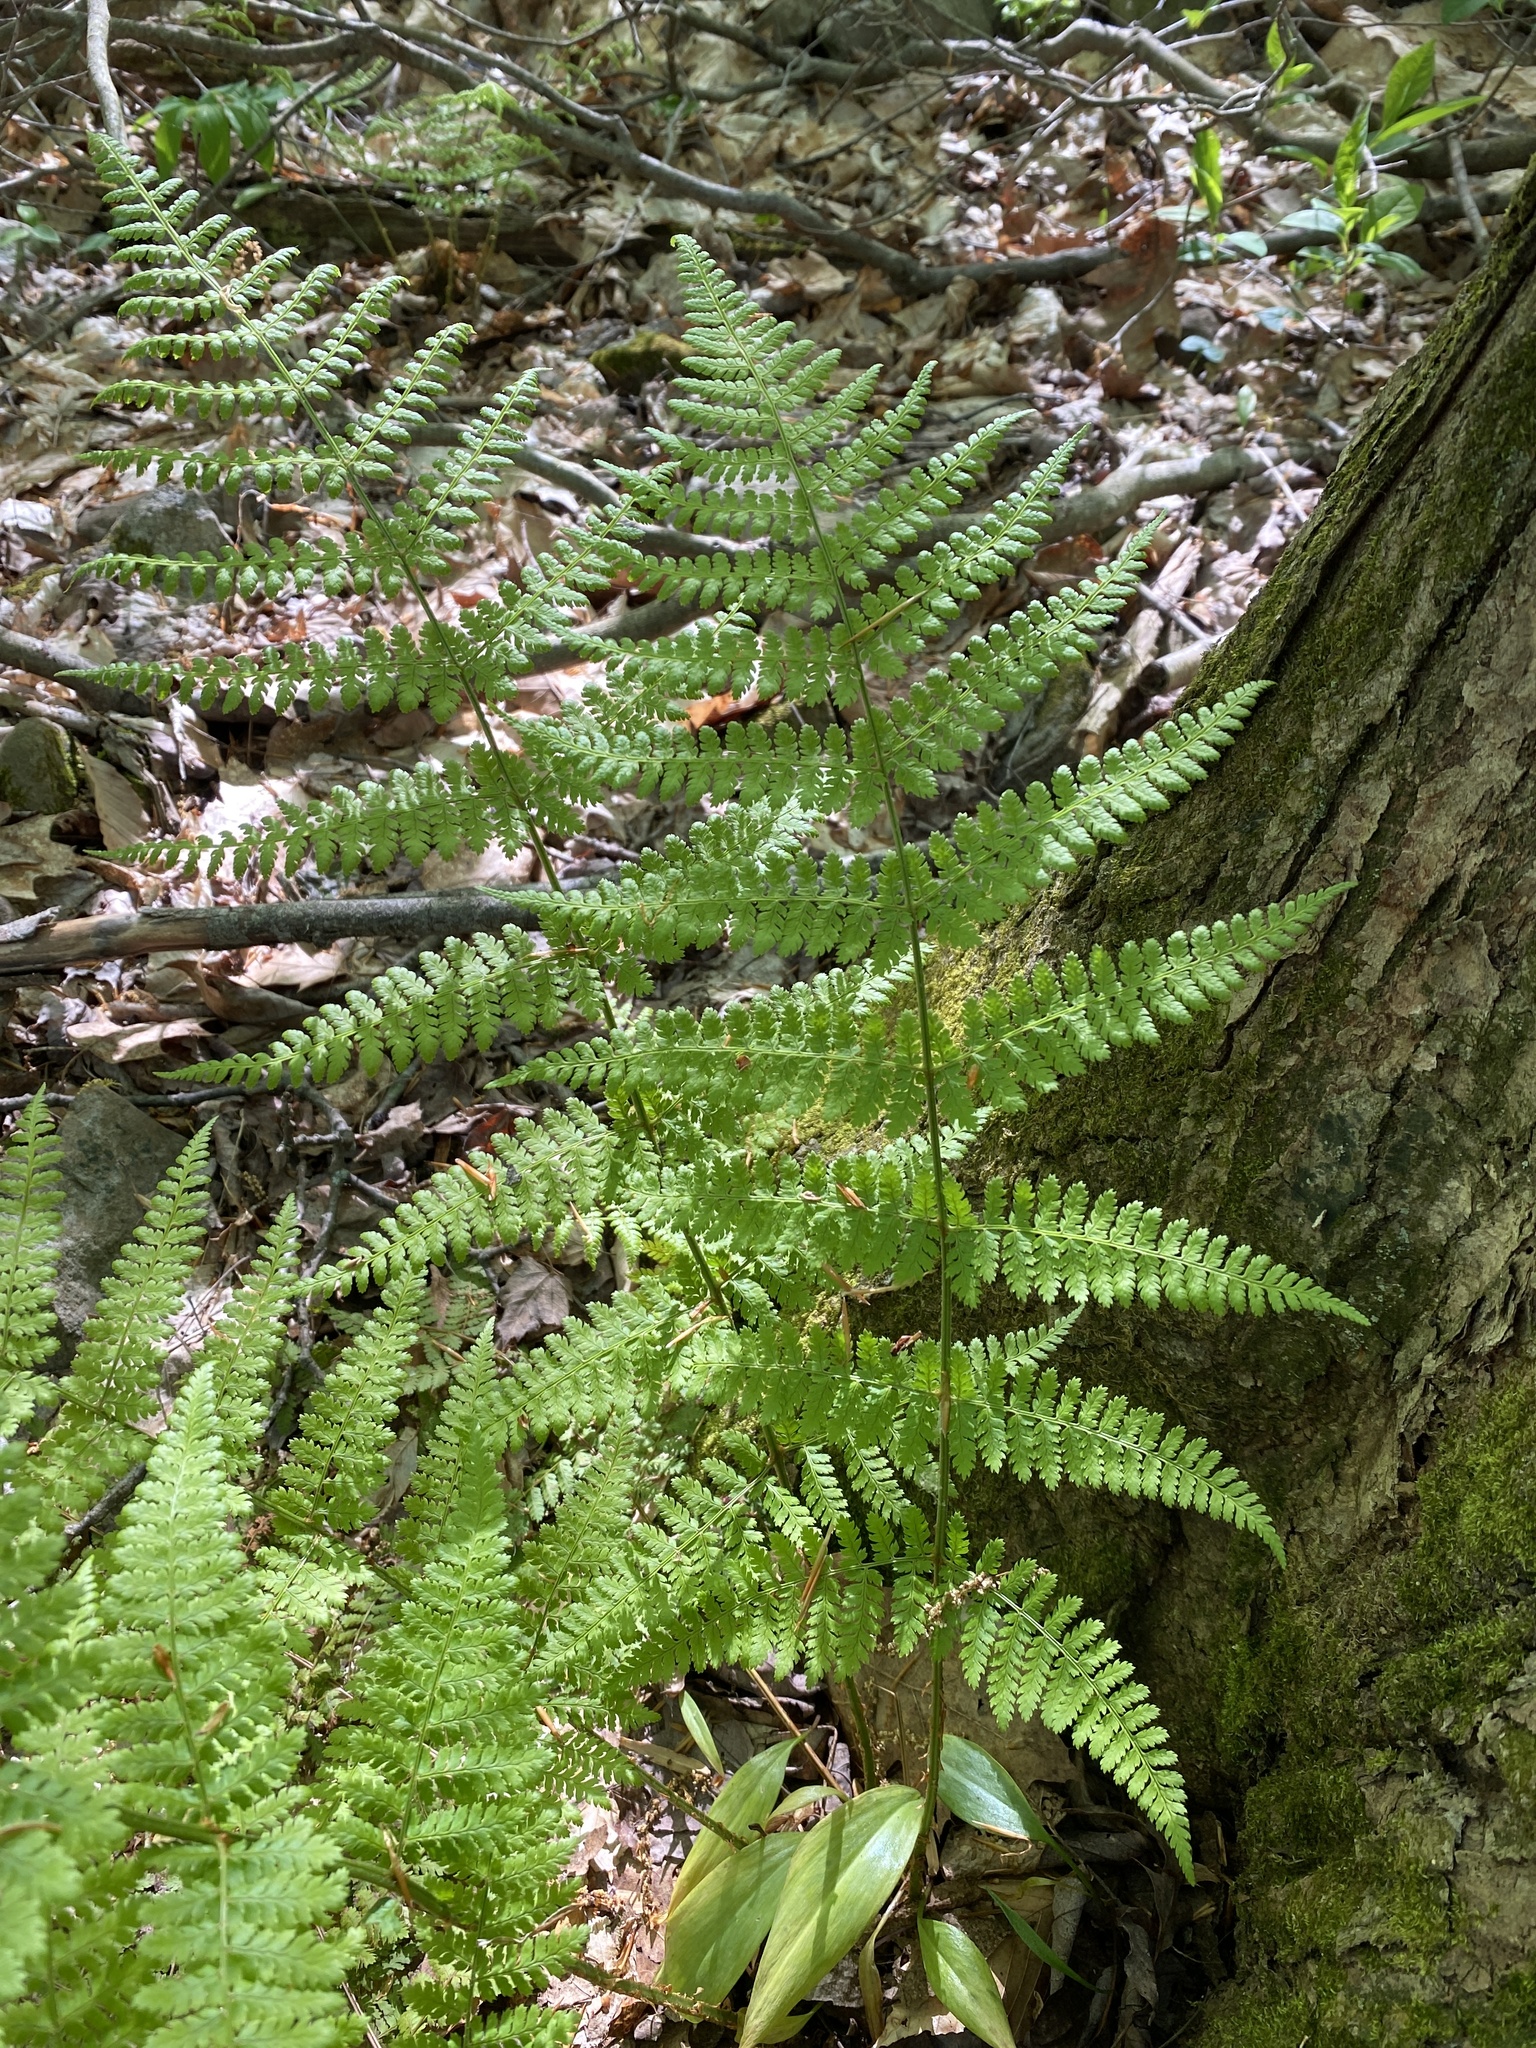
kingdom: Plantae
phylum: Tracheophyta
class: Polypodiopsida
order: Polypodiales
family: Dryopteridaceae
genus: Dryopteris
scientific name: Dryopteris intermedia
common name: Evergreen wood fern
